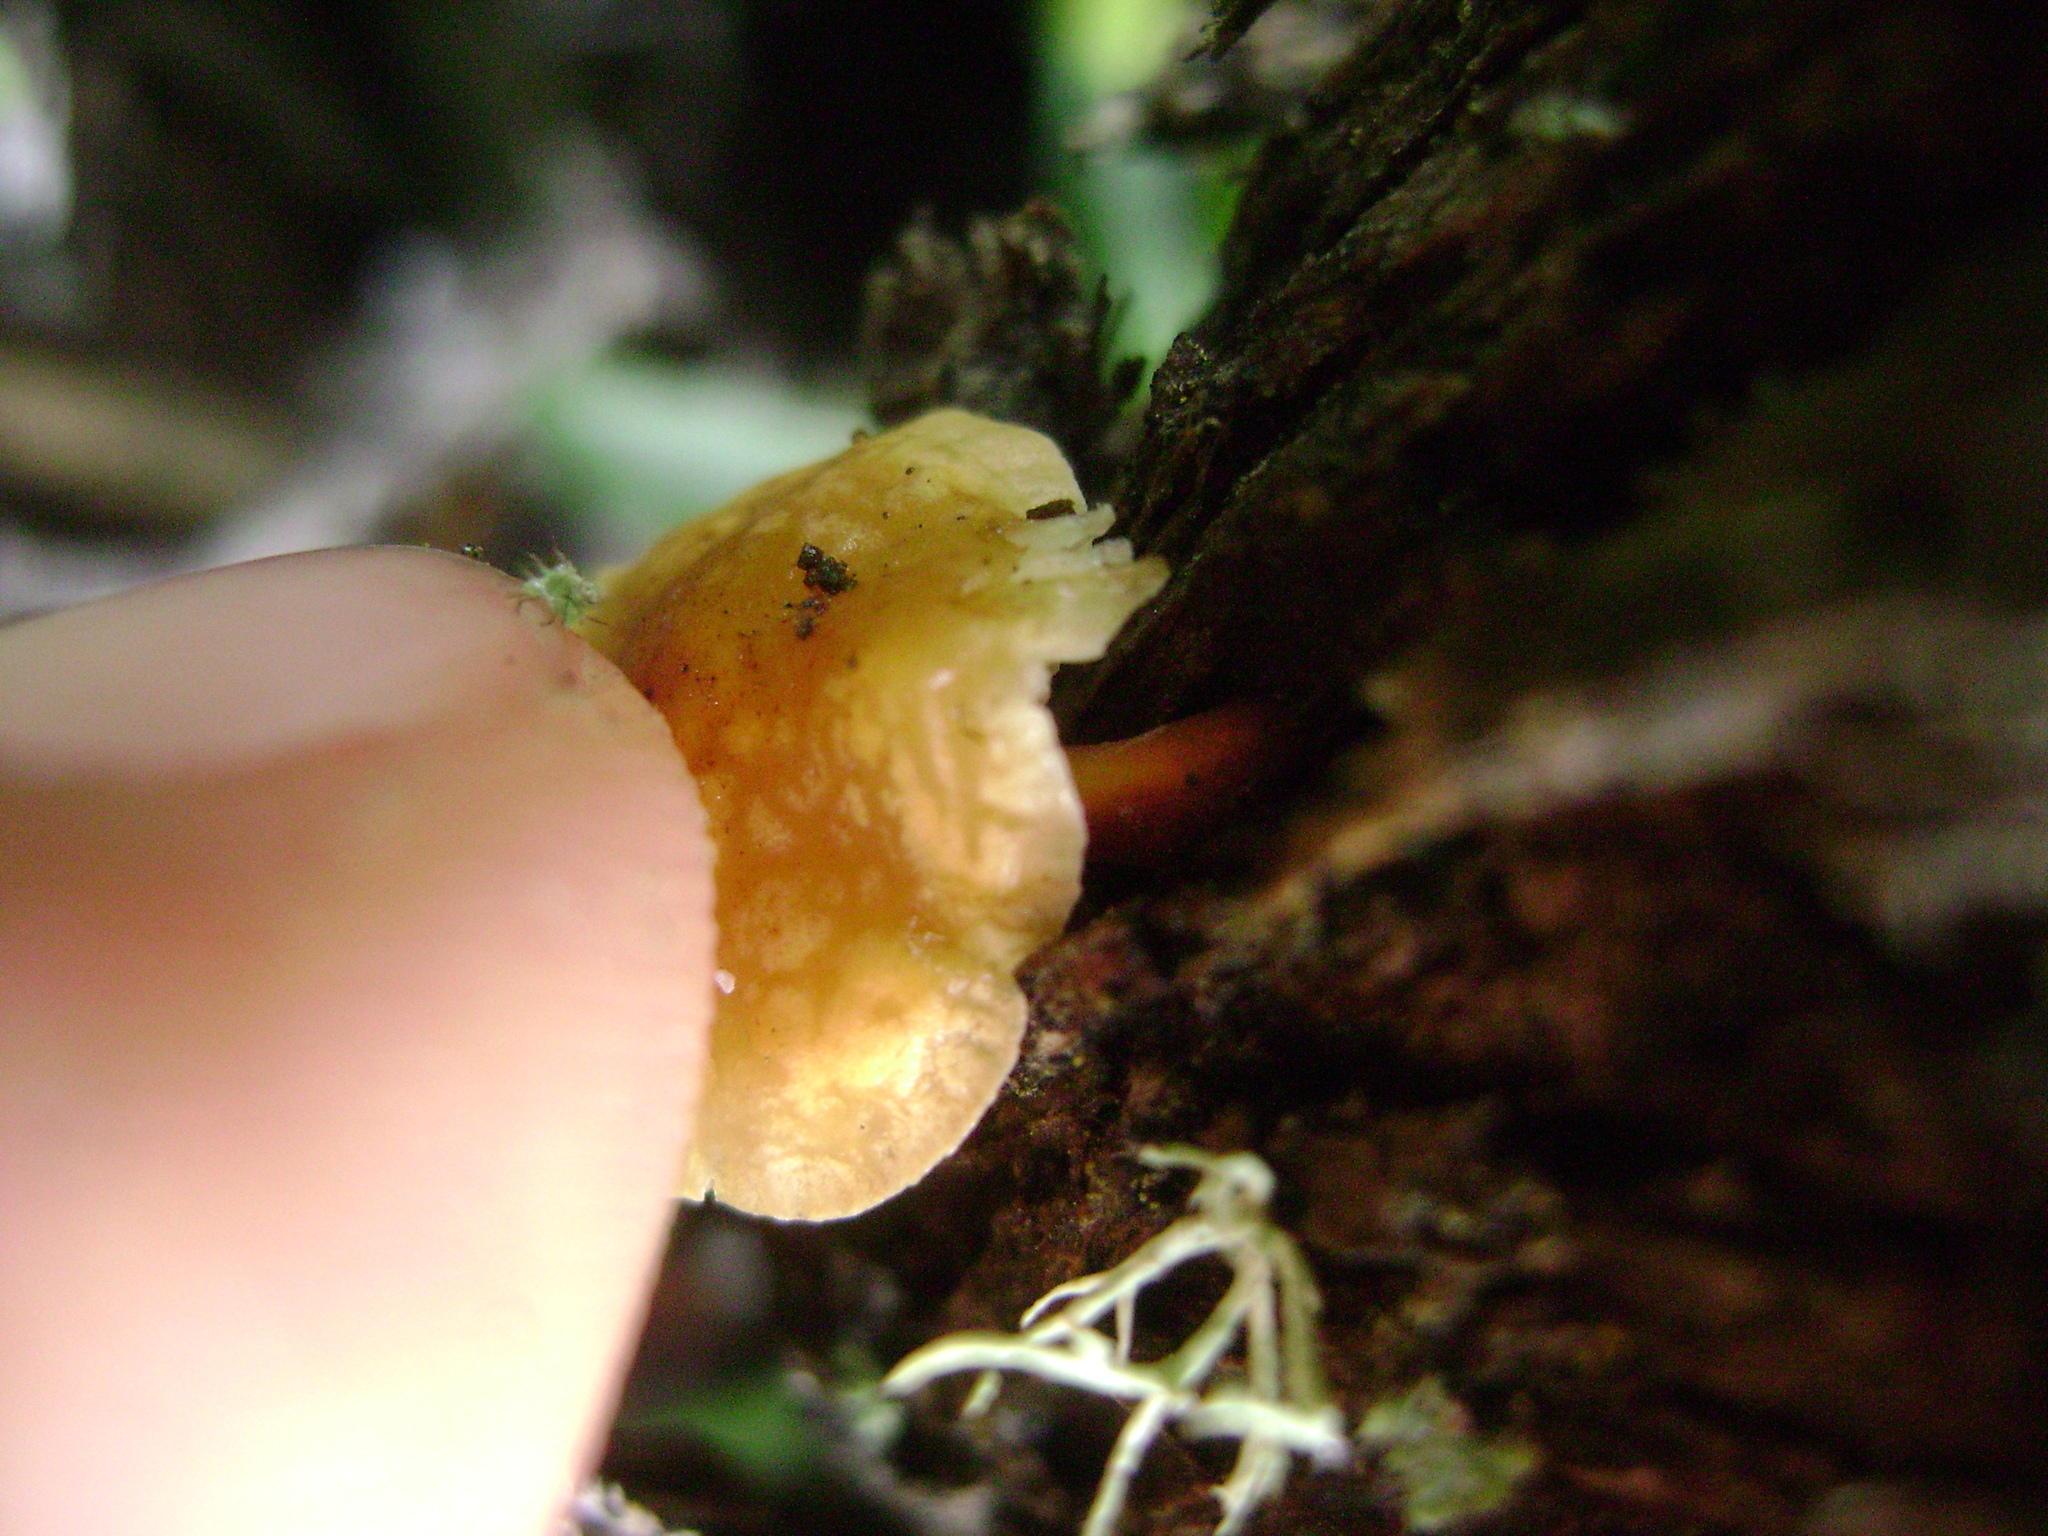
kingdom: Fungi
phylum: Basidiomycota
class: Agaricomycetes
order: Agaricales
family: Physalacriaceae
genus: Flammulina
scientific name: Flammulina velutipes
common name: Velvet shank
